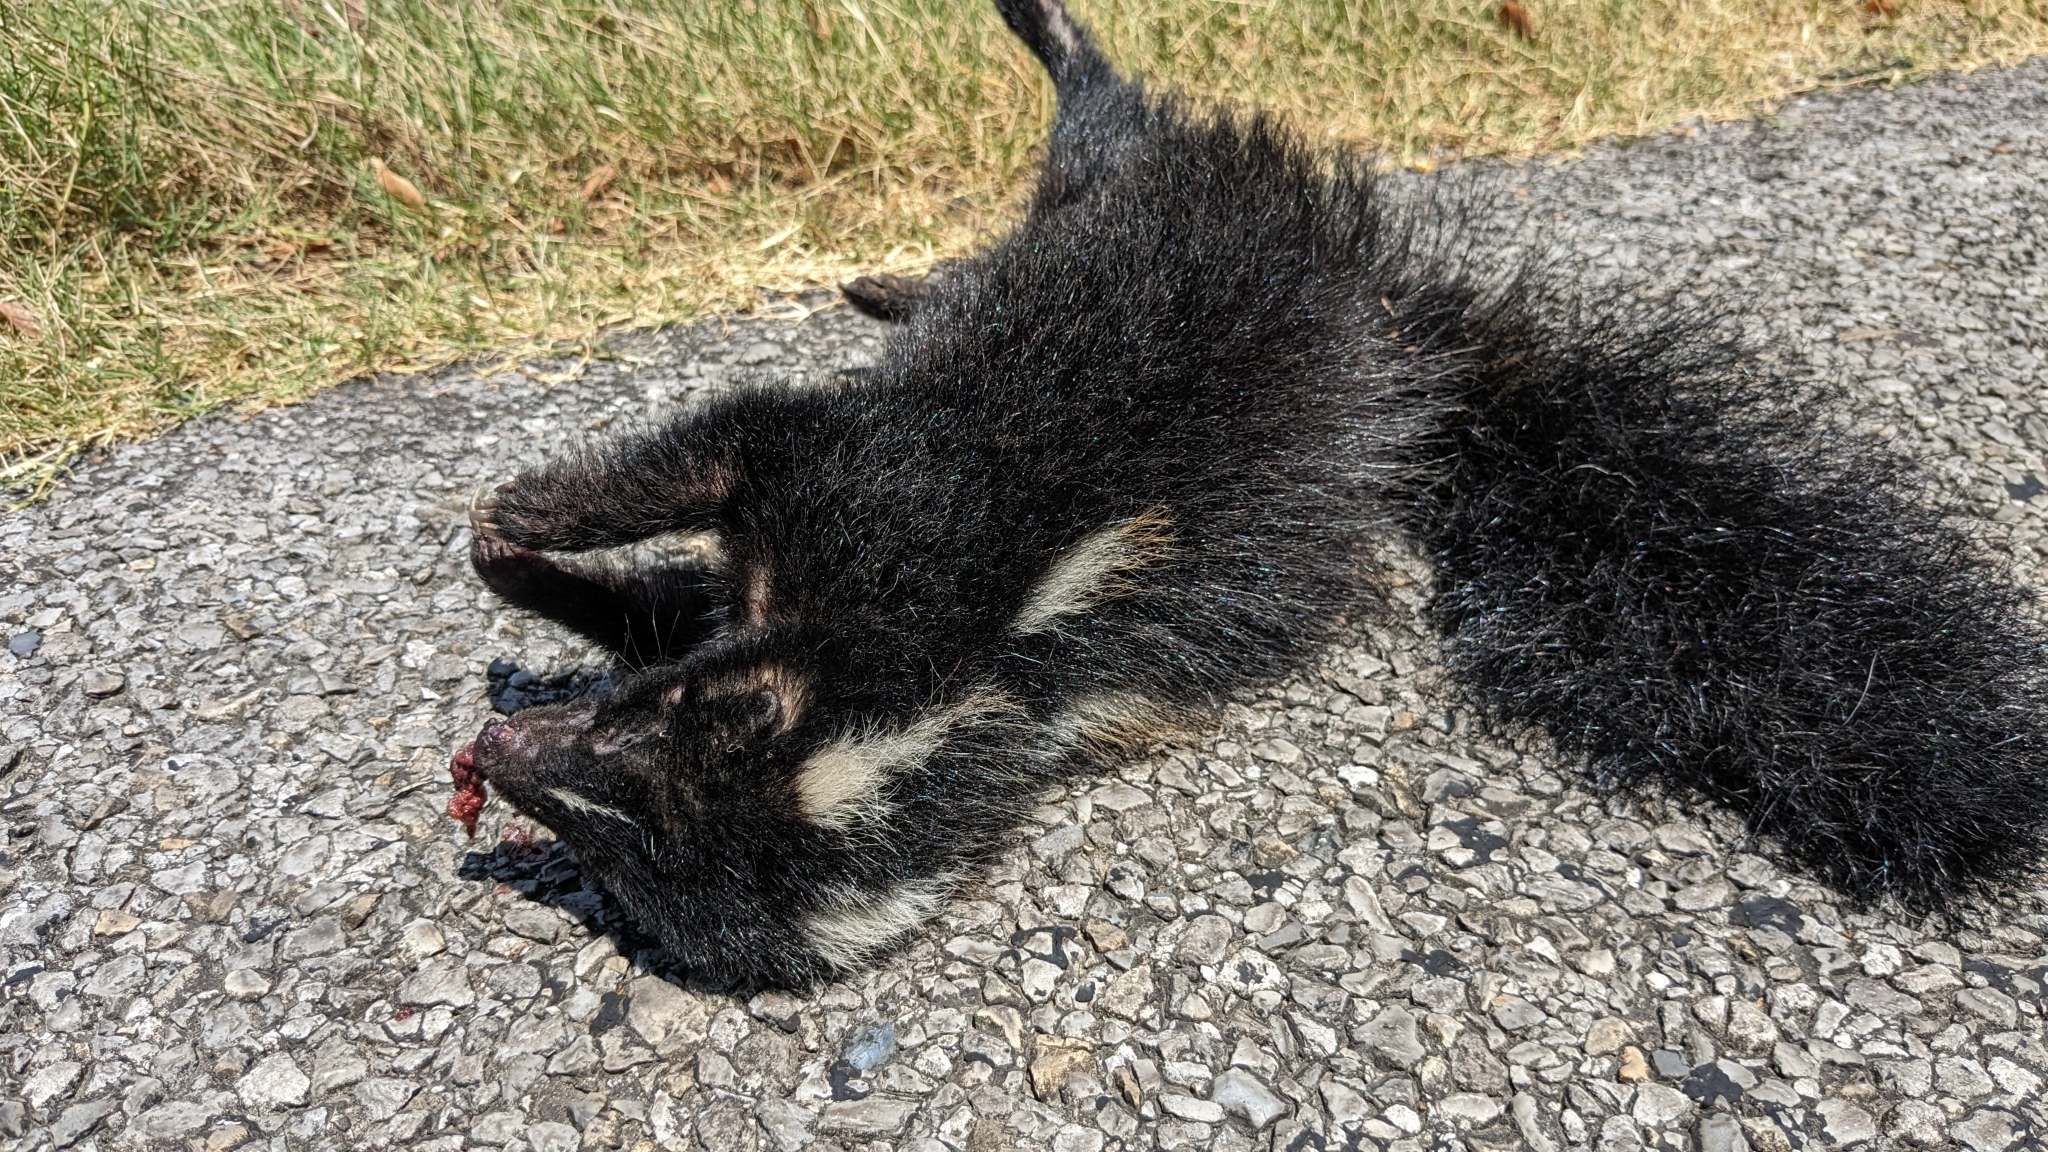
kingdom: Animalia
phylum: Chordata
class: Mammalia
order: Carnivora
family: Mephitidae
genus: Mephitis
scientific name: Mephitis mephitis
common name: Striped skunk
